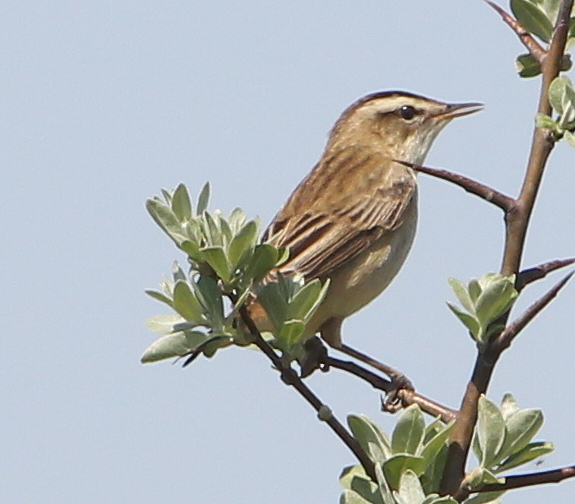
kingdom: Animalia
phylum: Chordata
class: Aves
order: Passeriformes
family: Acrocephalidae
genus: Acrocephalus
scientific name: Acrocephalus schoenobaenus
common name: Sedge warbler
